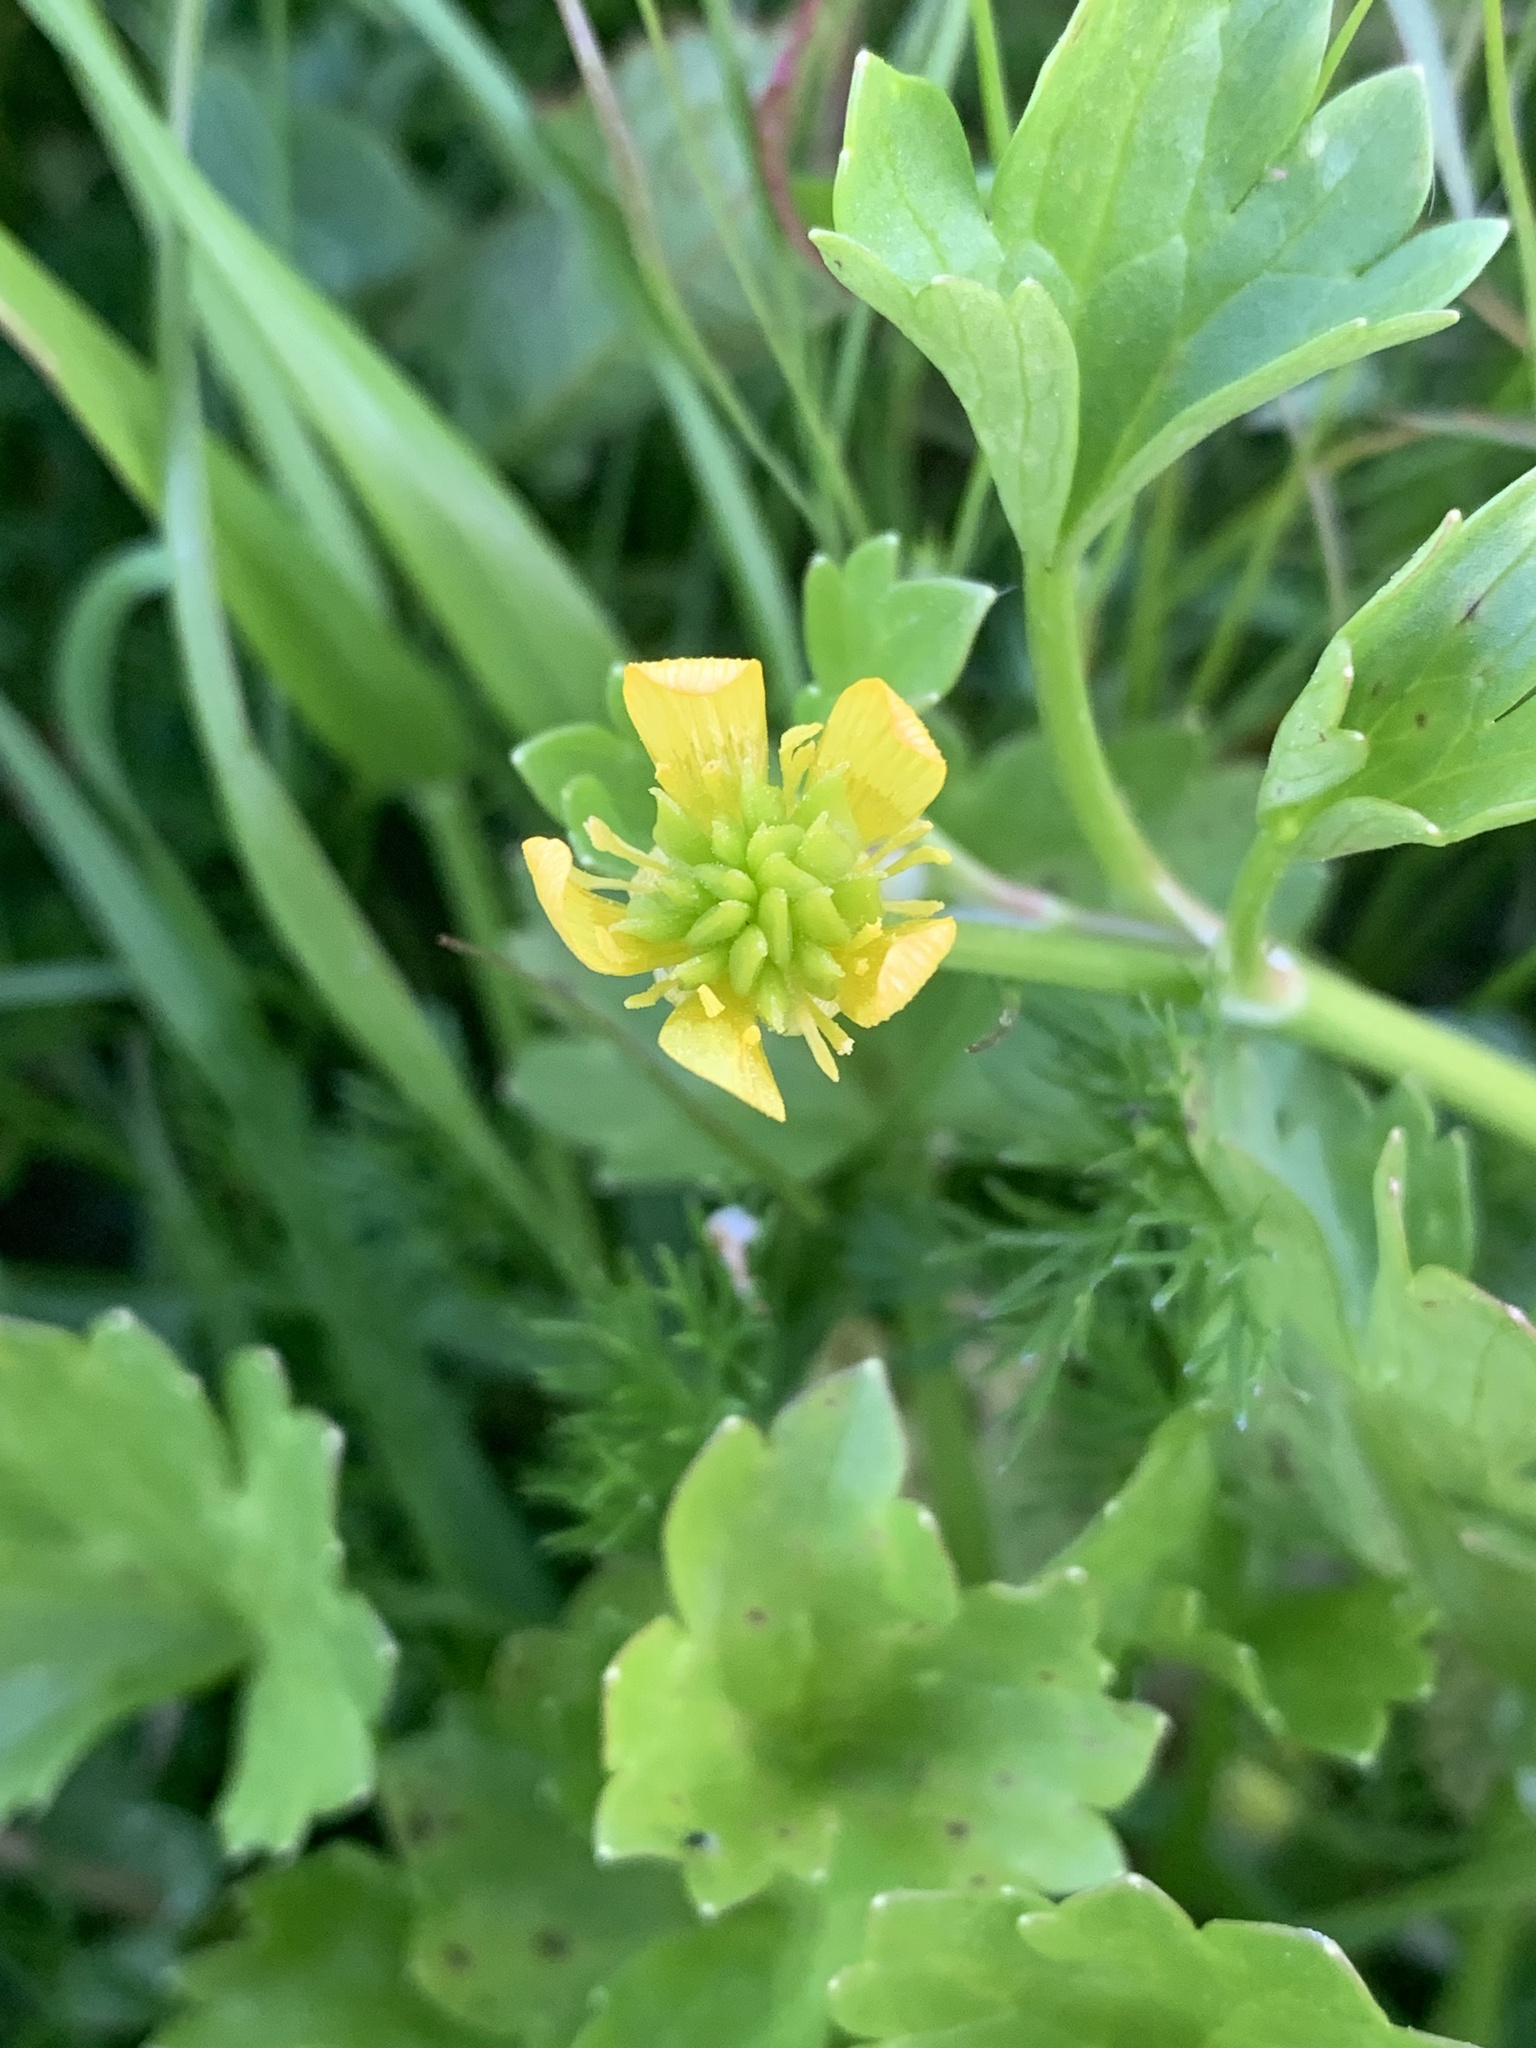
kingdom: Plantae
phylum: Tracheophyta
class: Magnoliopsida
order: Ranunculales
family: Ranunculaceae
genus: Ranunculus
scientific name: Ranunculus muricatus
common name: Rough-fruited buttercup
